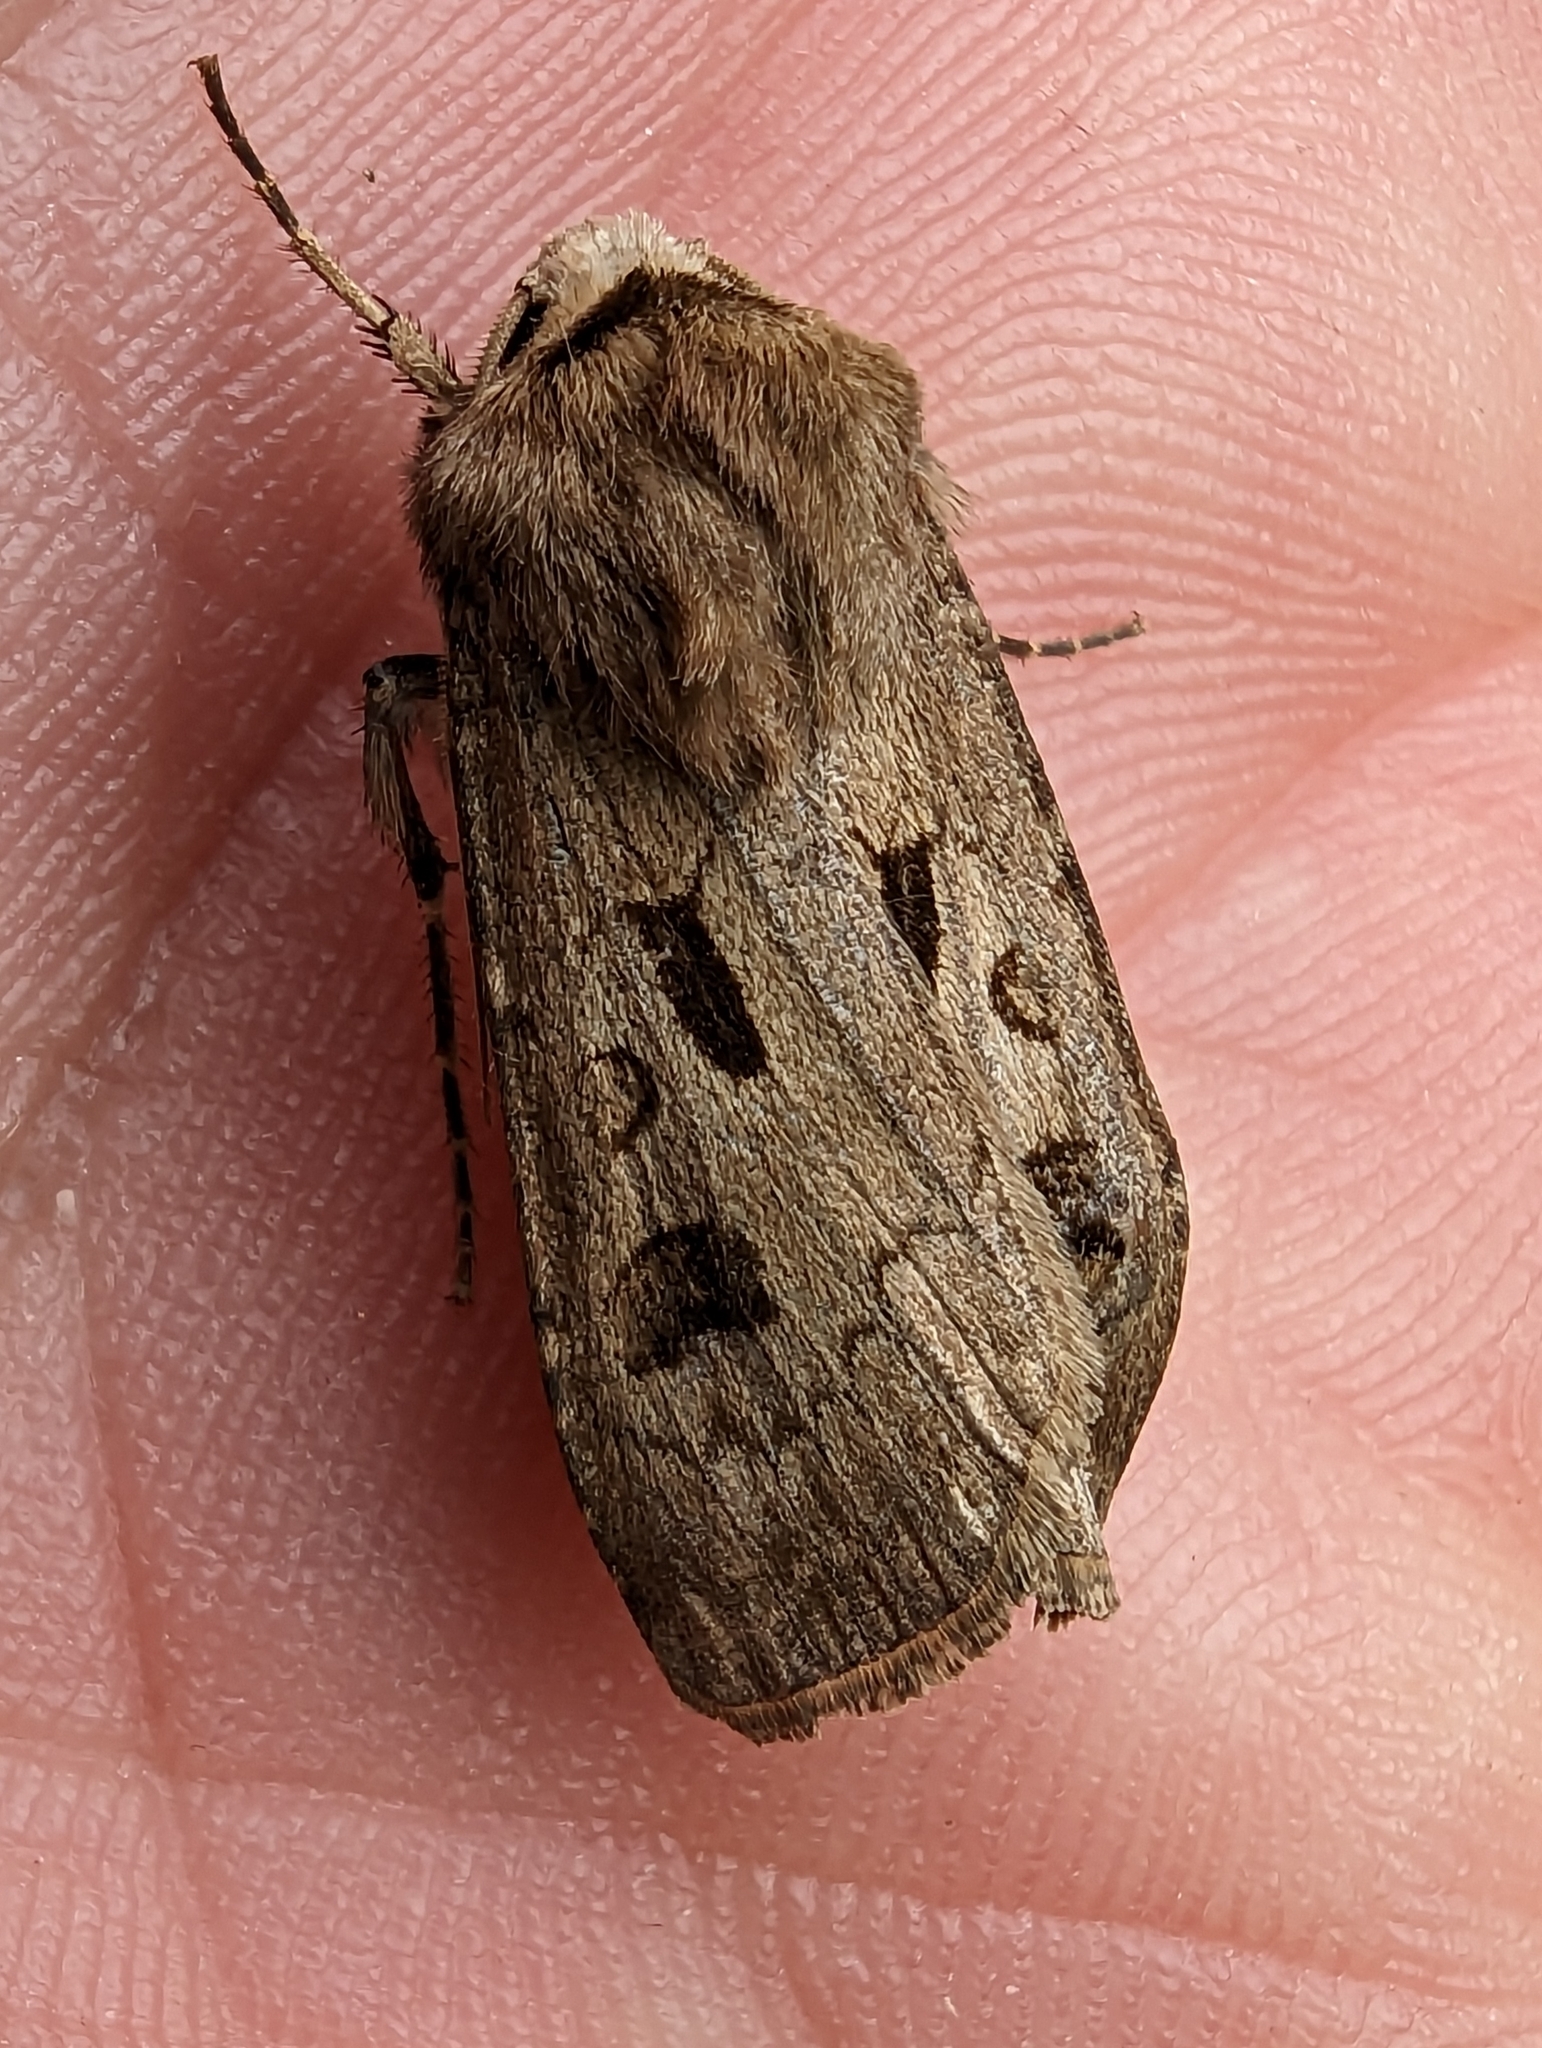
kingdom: Animalia
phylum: Arthropoda
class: Insecta
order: Lepidoptera
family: Noctuidae
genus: Agrotis
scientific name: Agrotis exclamationis
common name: Heart and dart
